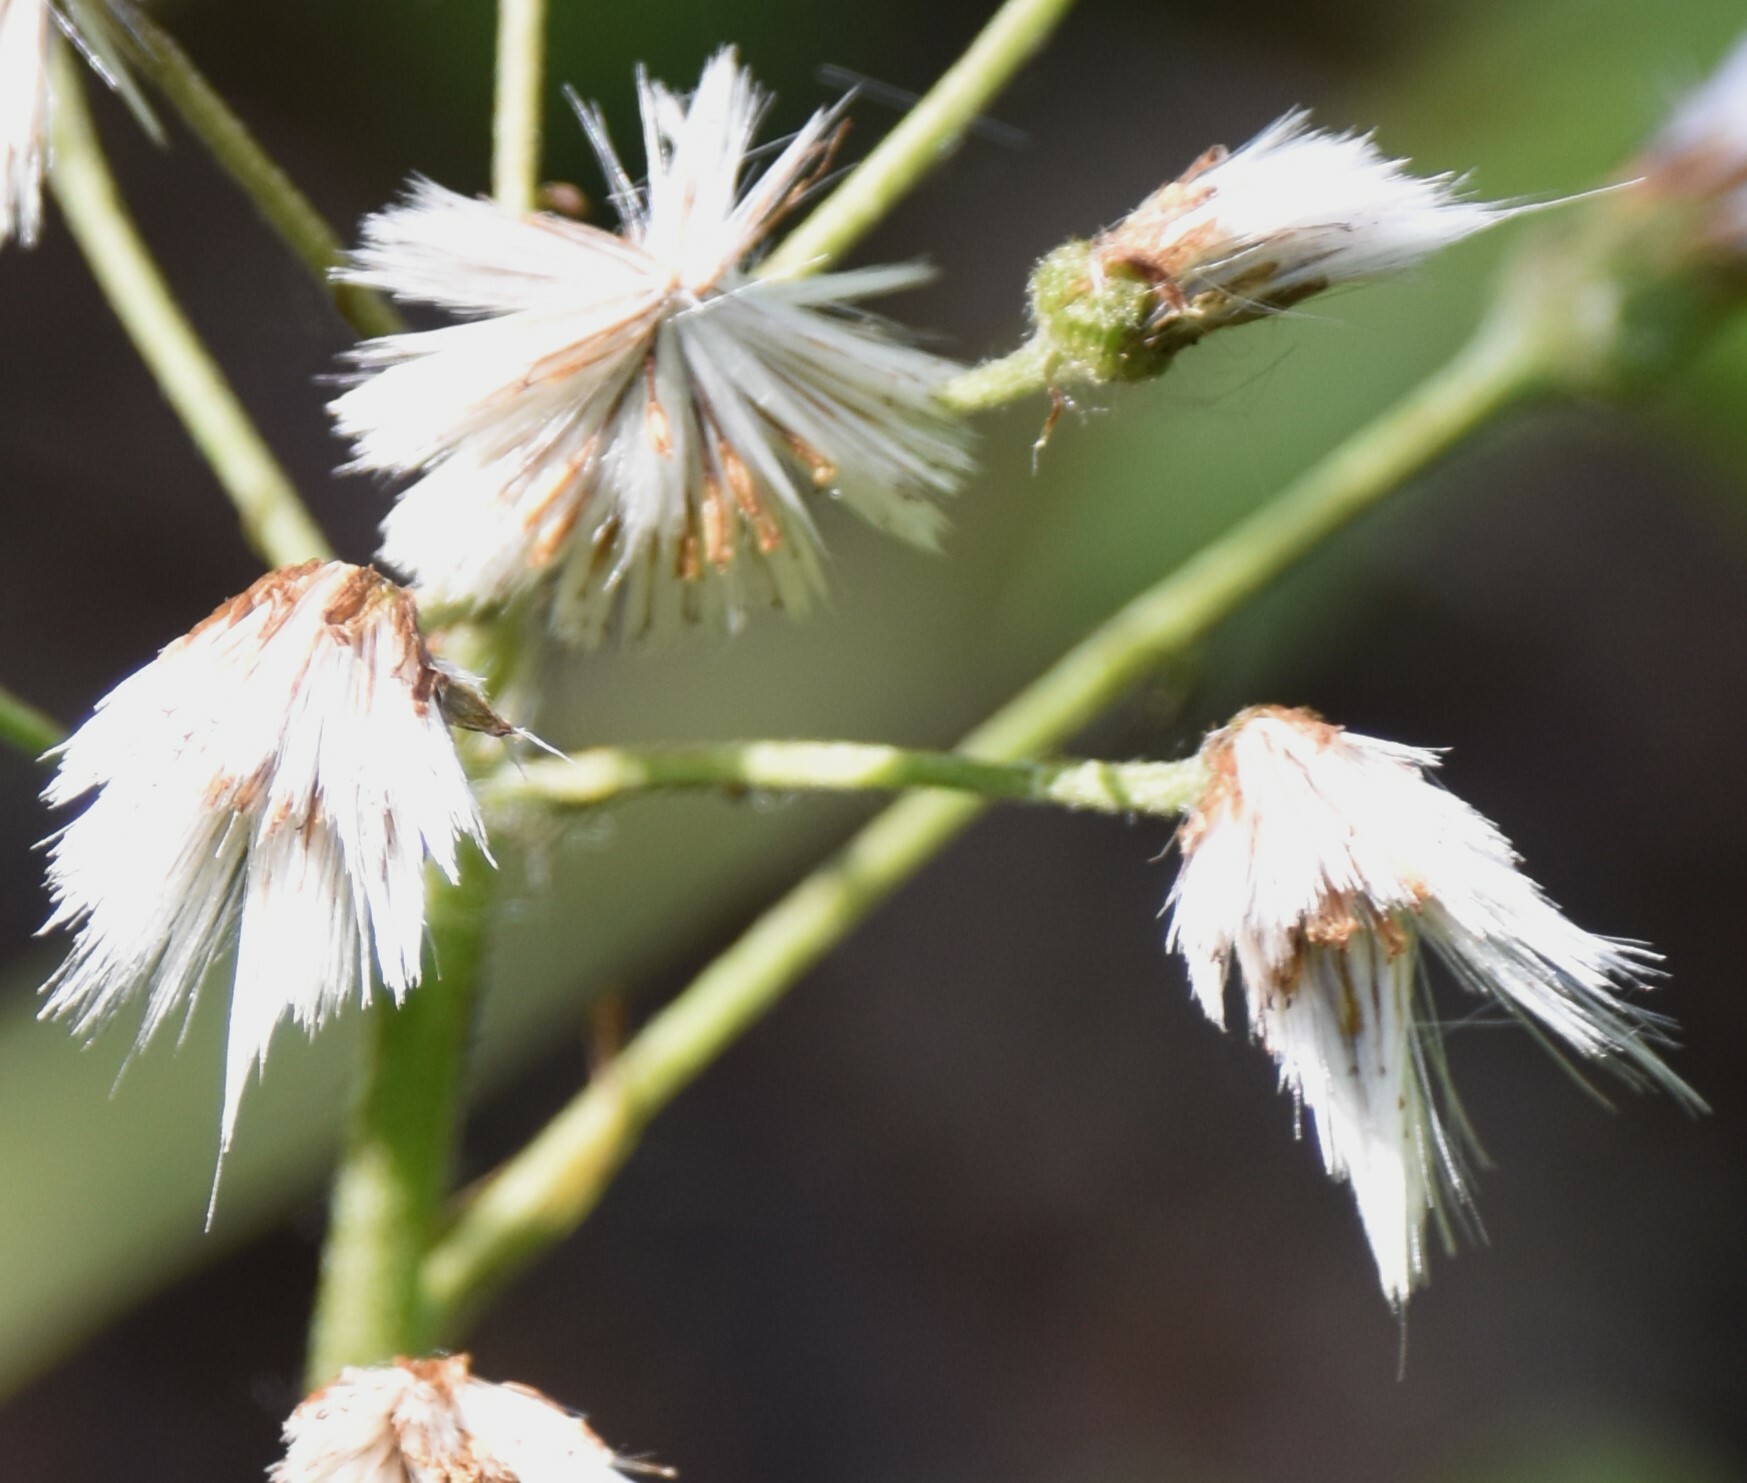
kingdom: Plantae
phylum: Tracheophyta
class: Magnoliopsida
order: Asterales
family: Asteraceae
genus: Petasites
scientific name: Petasites frigidus
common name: Arctic butterbur
